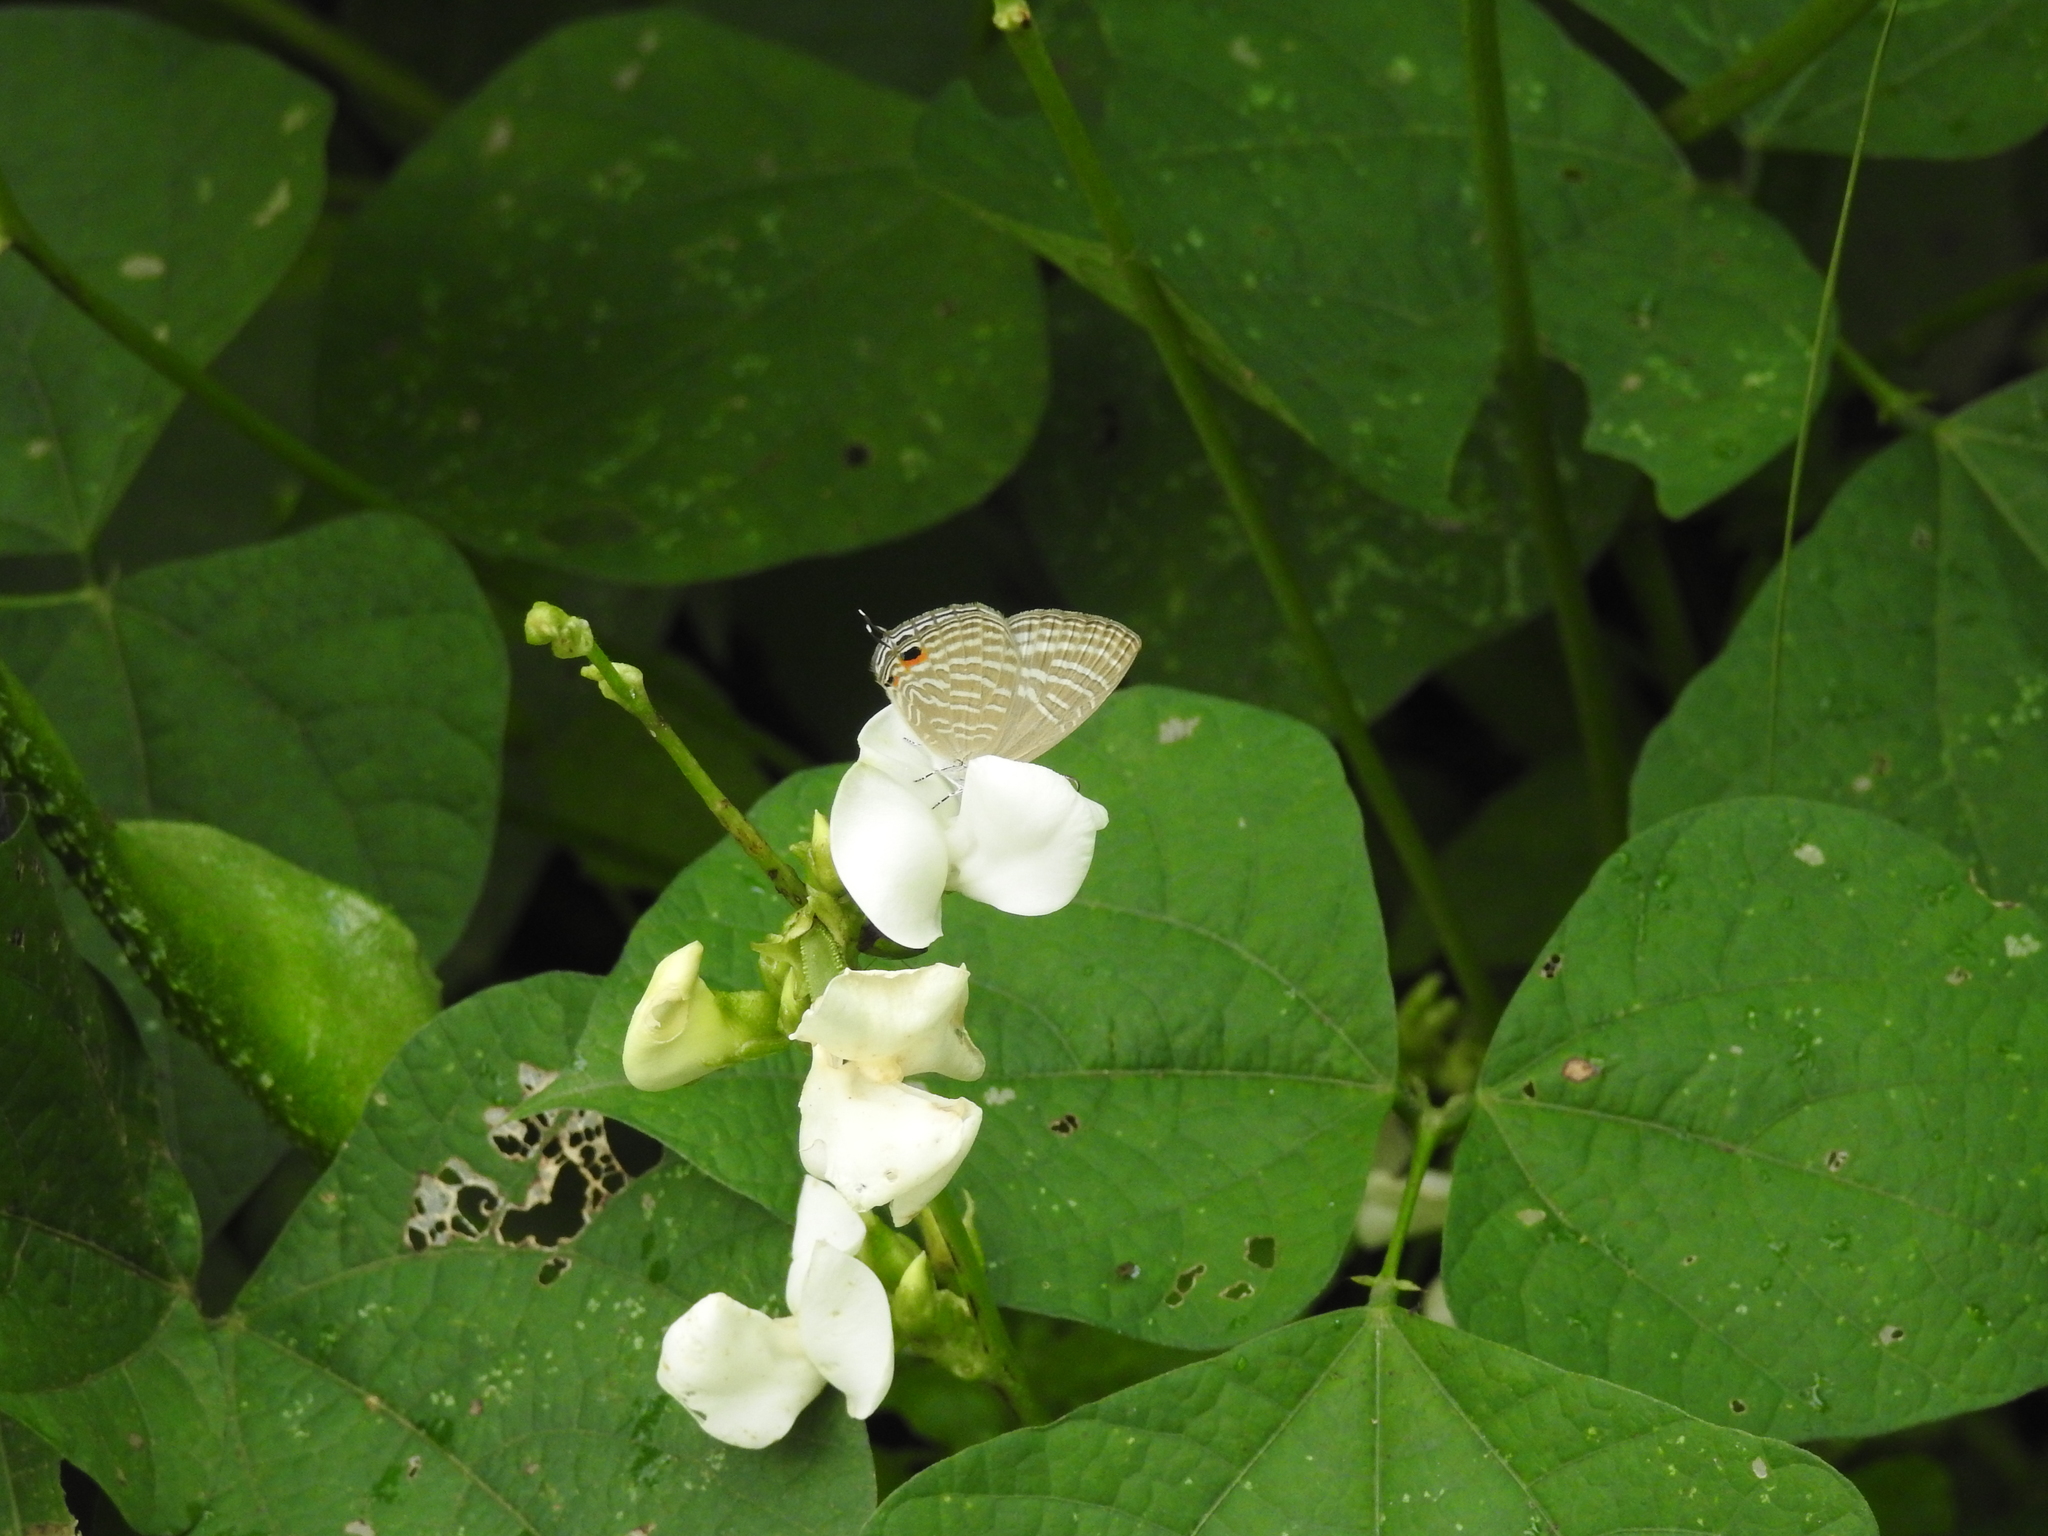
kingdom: Animalia
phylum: Arthropoda
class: Insecta
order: Lepidoptera
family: Lycaenidae
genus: Jamides
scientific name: Jamides celeno
